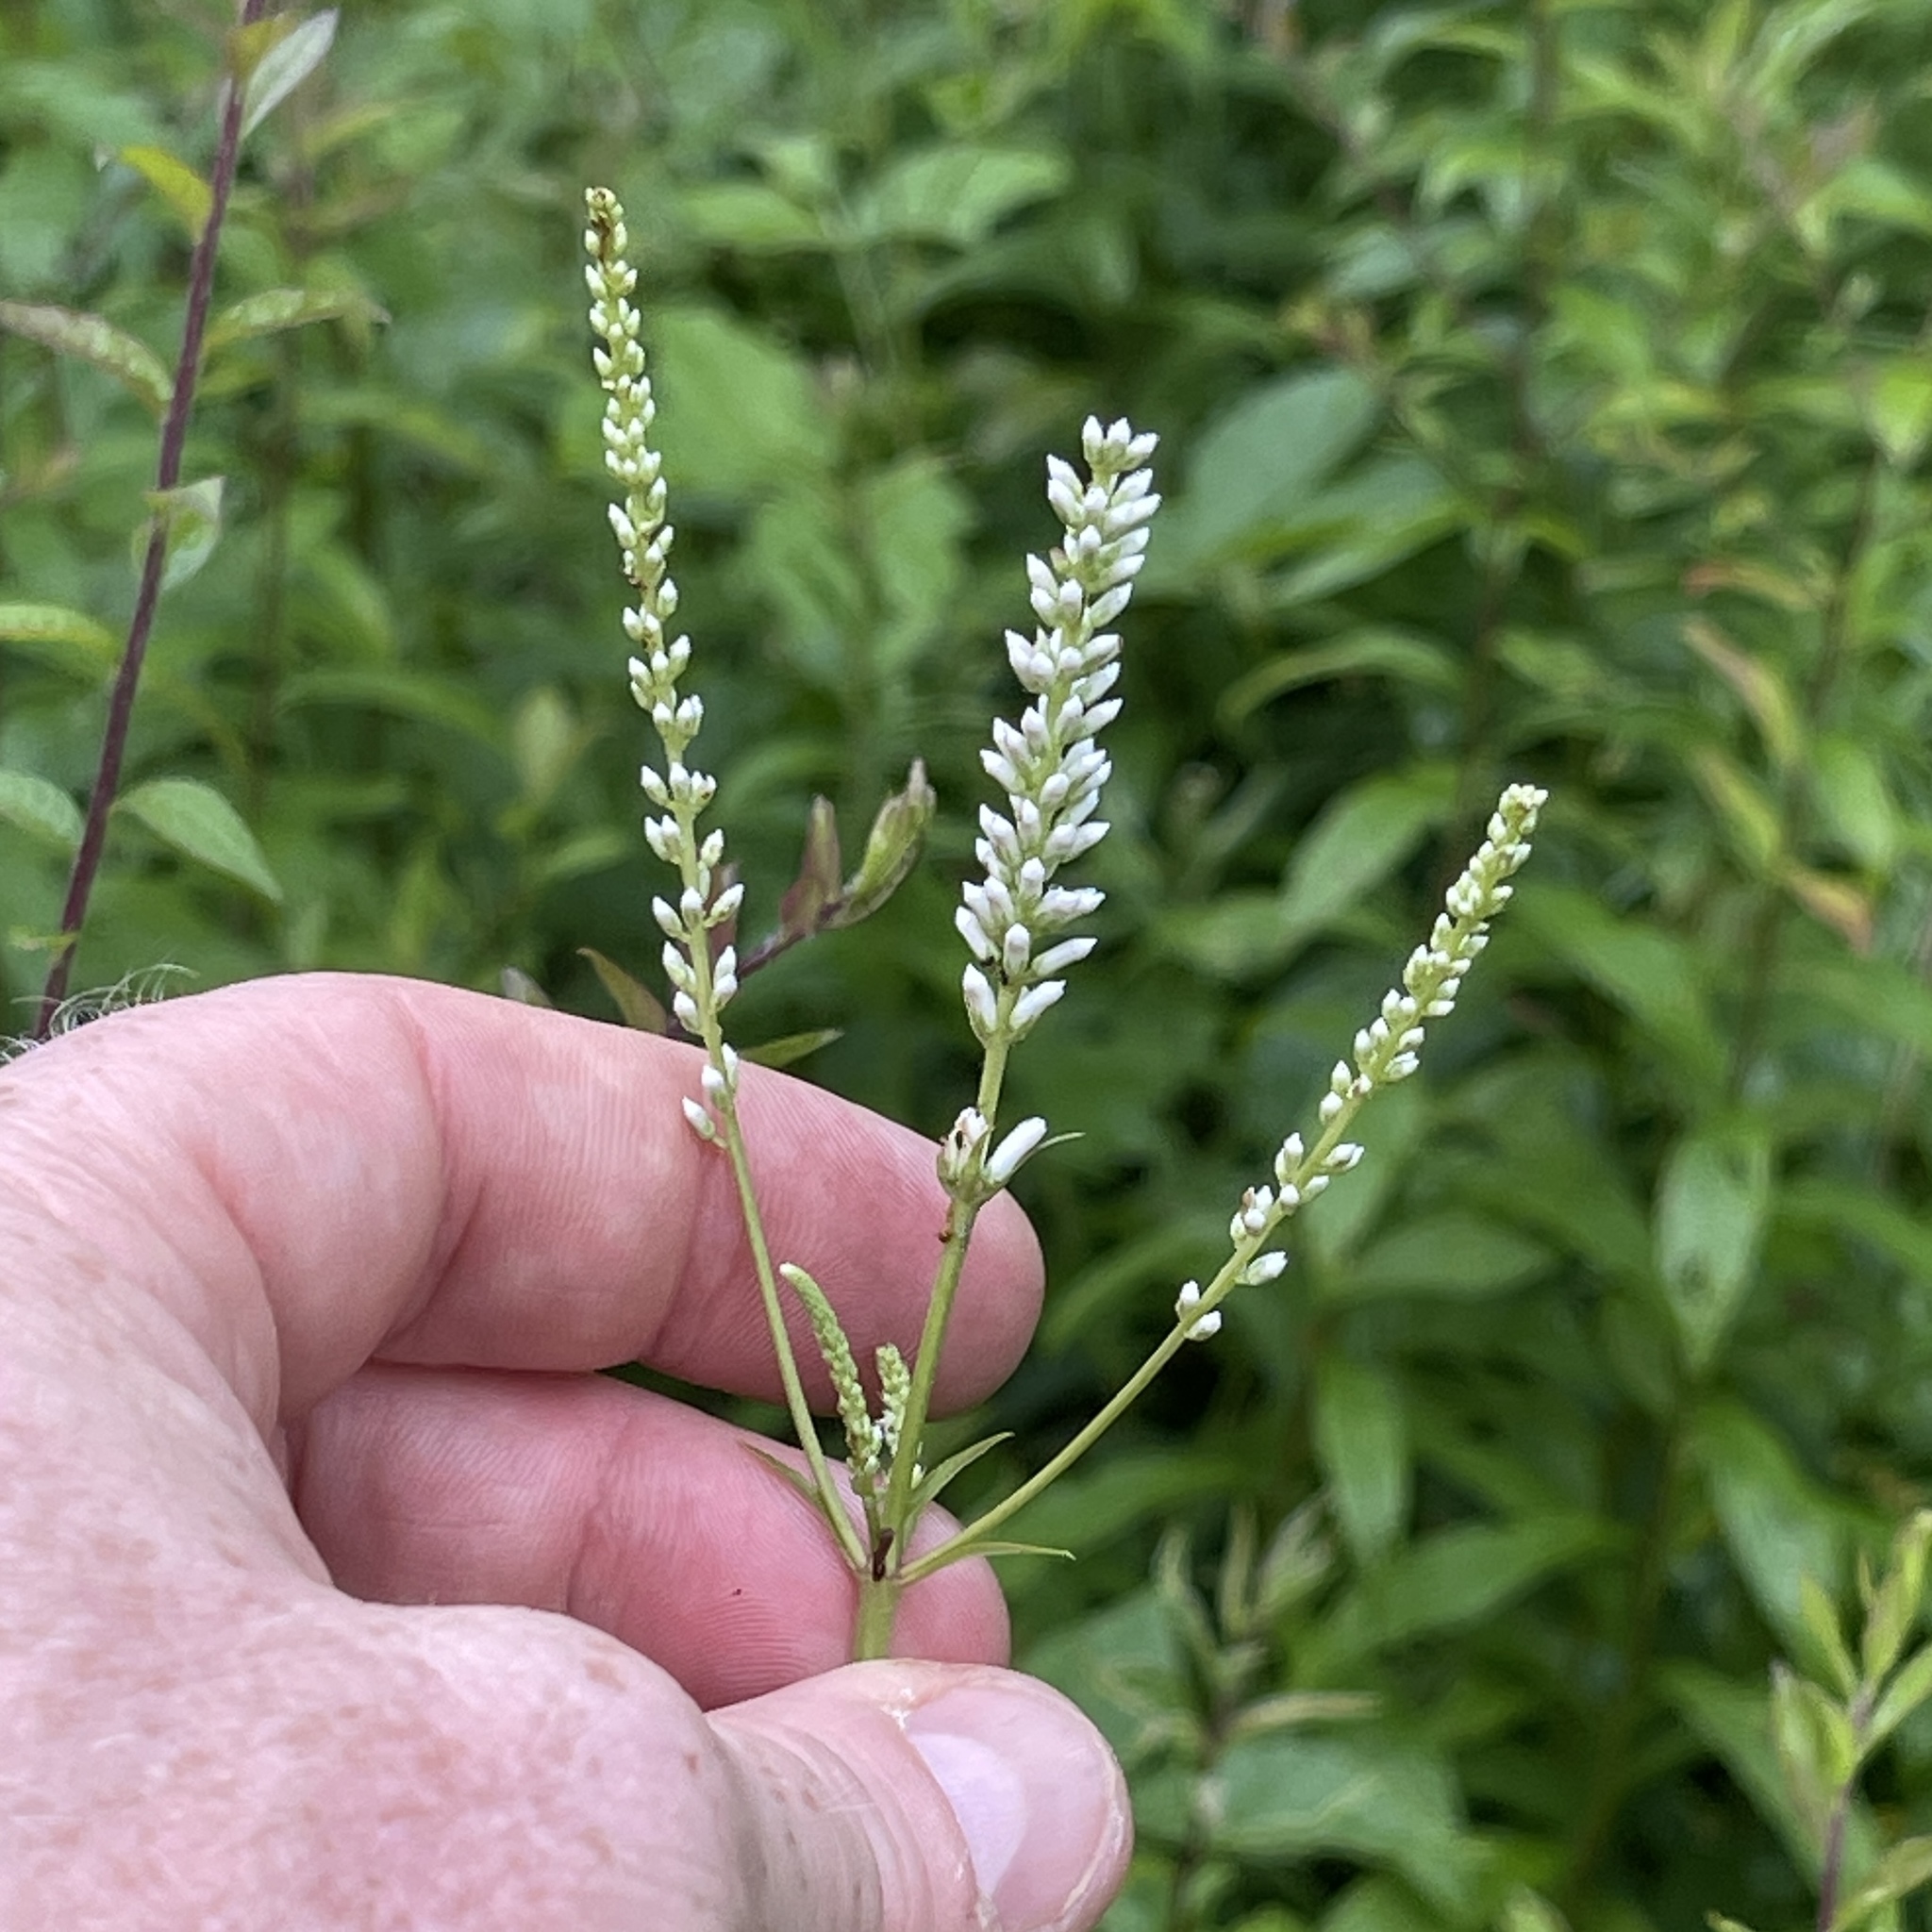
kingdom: Plantae
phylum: Tracheophyta
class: Magnoliopsida
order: Lamiales
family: Plantaginaceae
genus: Veronicastrum
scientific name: Veronicastrum virginicum
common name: Blackroot
